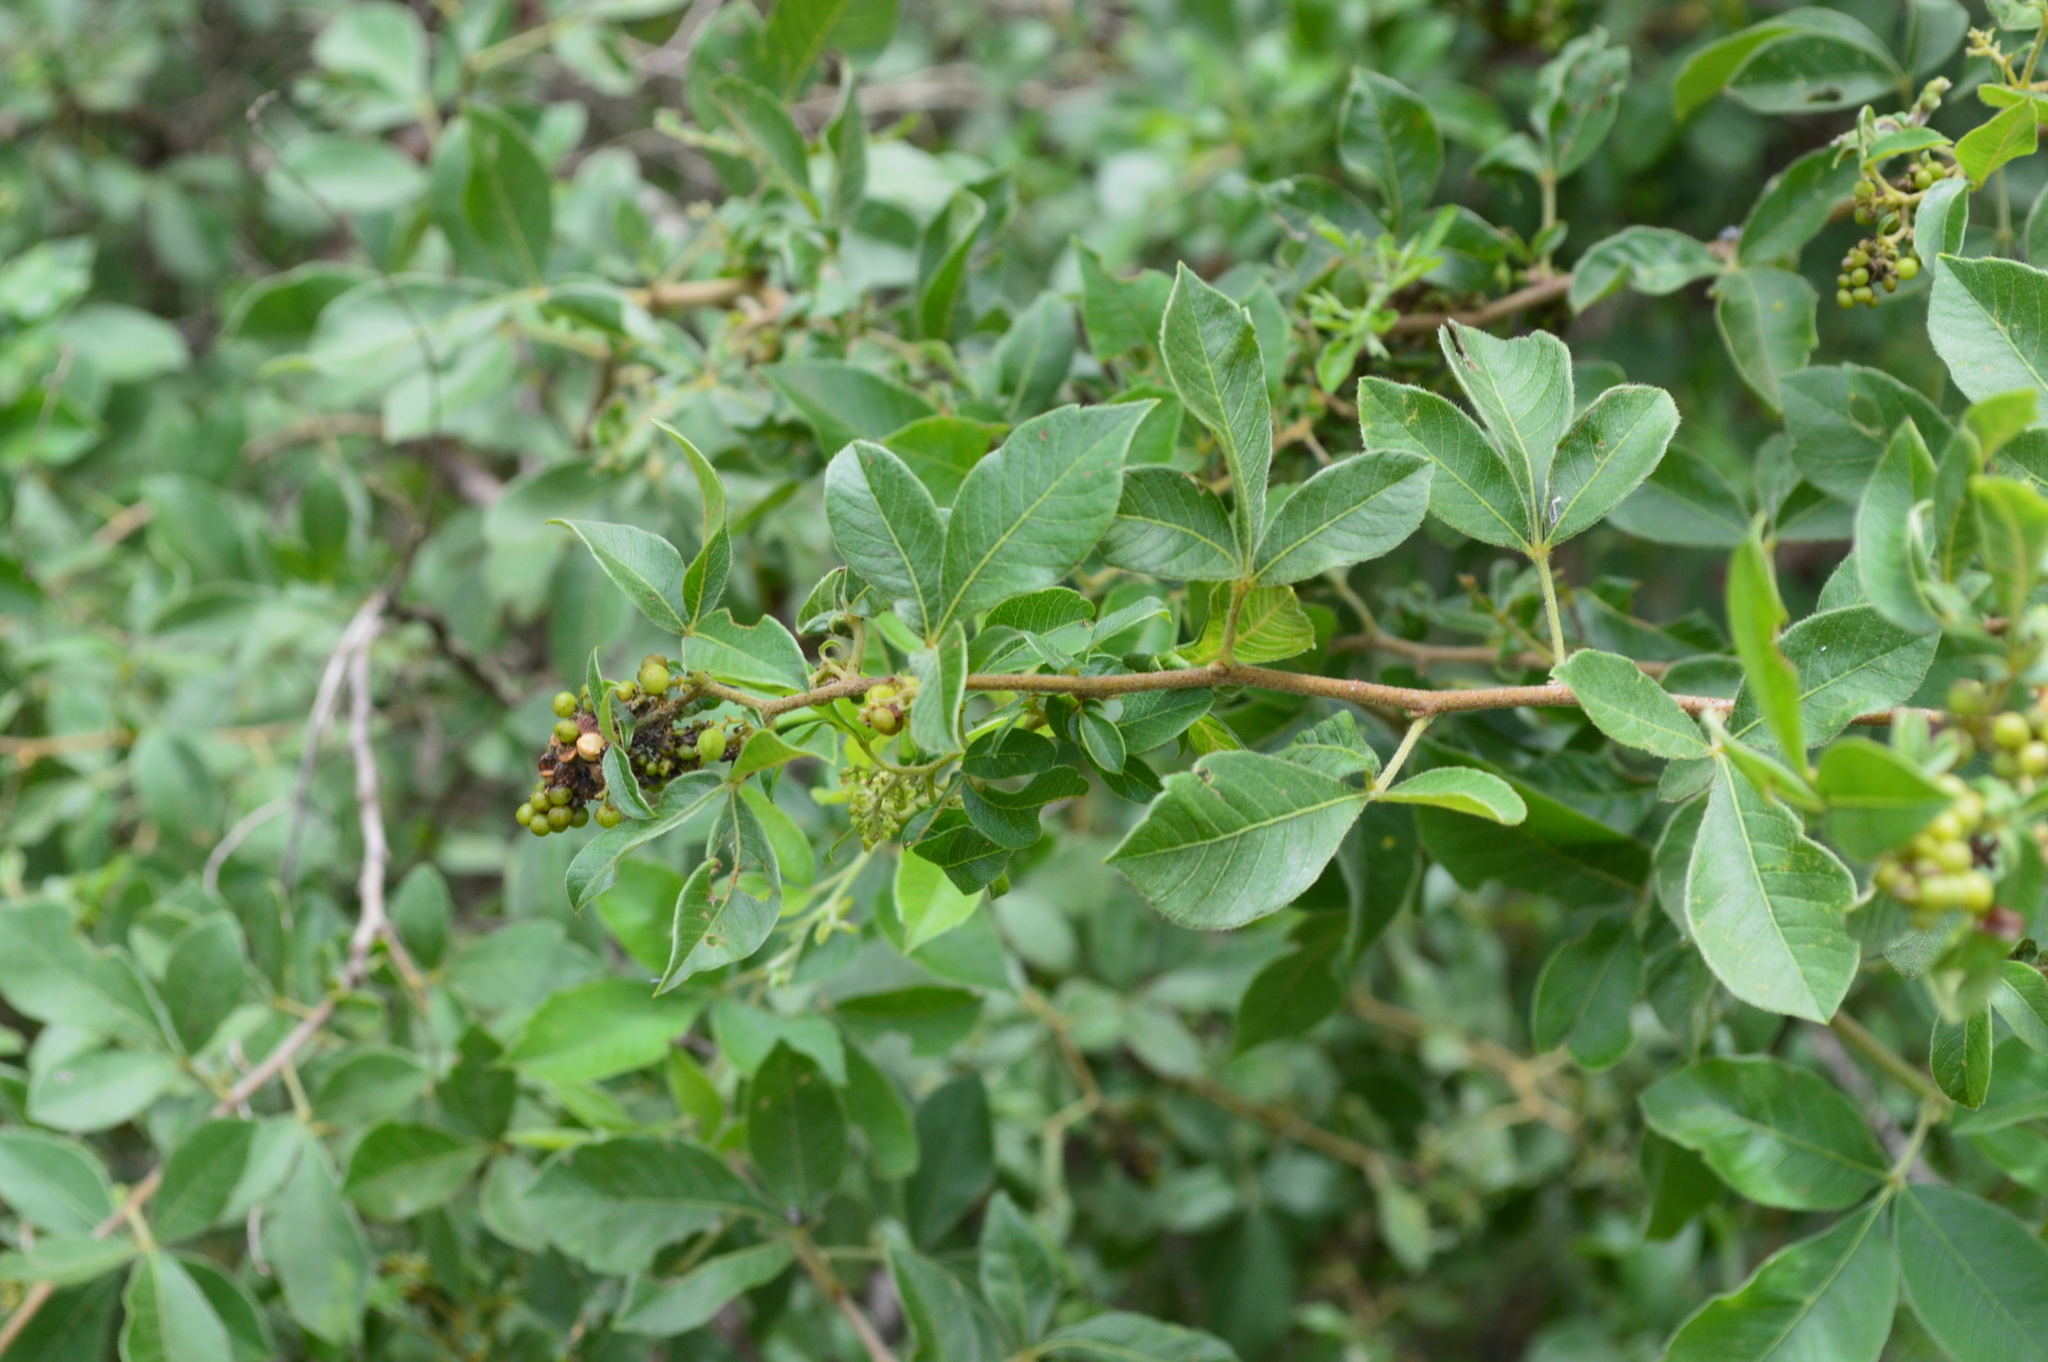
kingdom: Plantae
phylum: Tracheophyta
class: Magnoliopsida
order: Sapindales
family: Anacardiaceae
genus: Searsia
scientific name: Searsia pyroides
